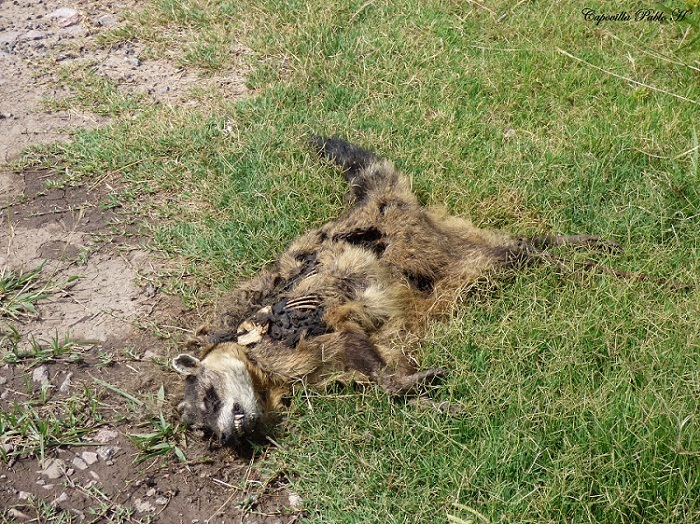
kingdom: Animalia
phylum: Chordata
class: Mammalia
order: Carnivora
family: Procyonidae
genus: Procyon
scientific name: Procyon cancrivorus
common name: Crab-eating raccoon
